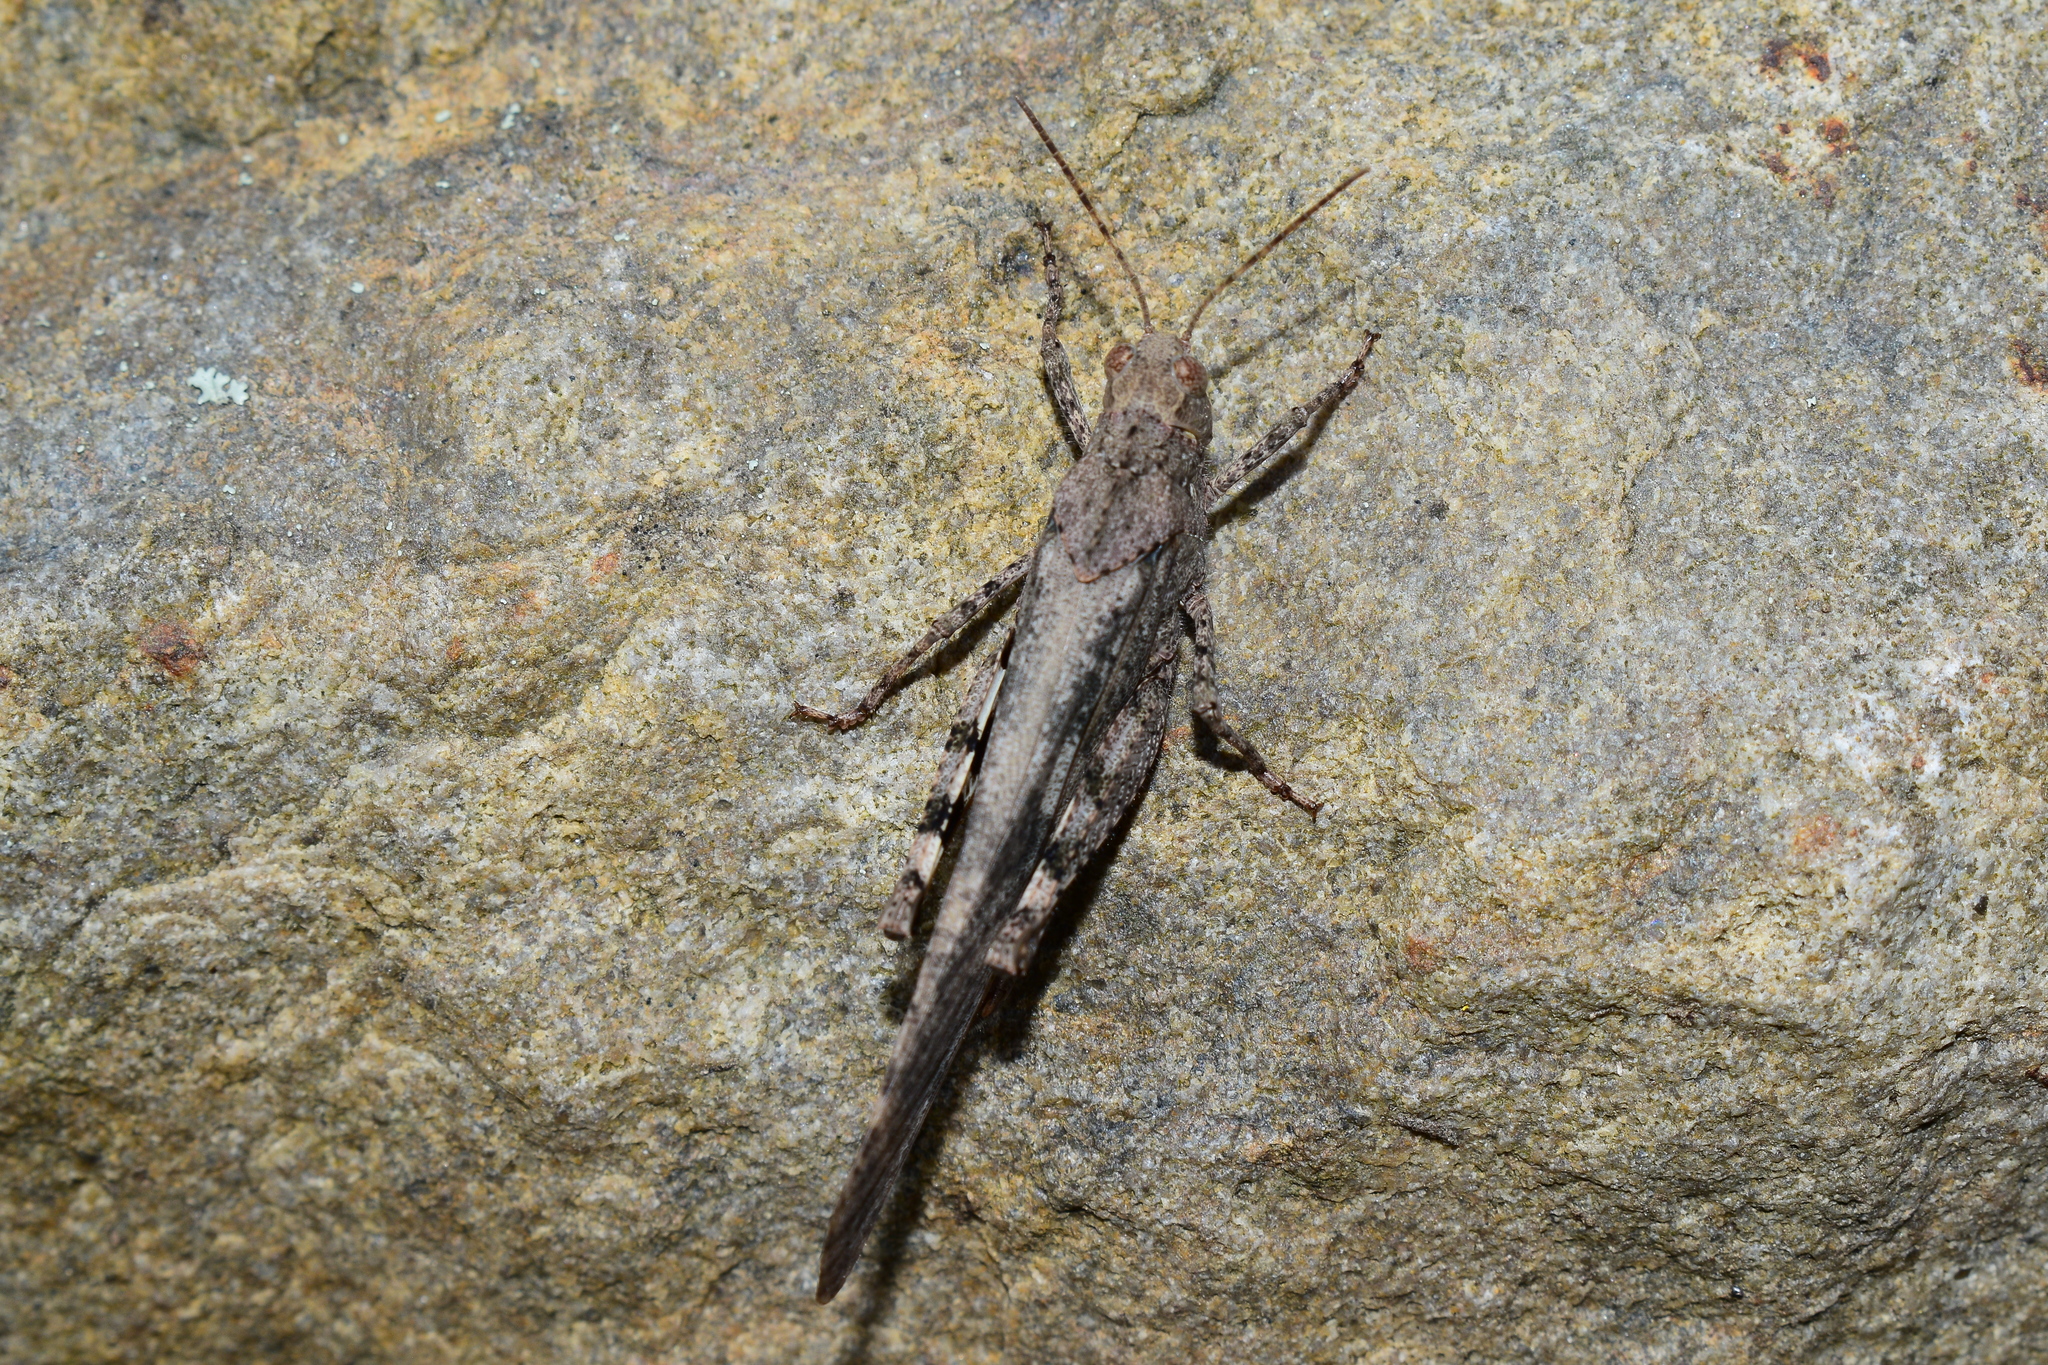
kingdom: Animalia
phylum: Arthropoda
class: Insecta
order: Orthoptera
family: Acrididae
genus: Dissosteira
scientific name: Dissosteira carolina
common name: Carolina grasshopper
